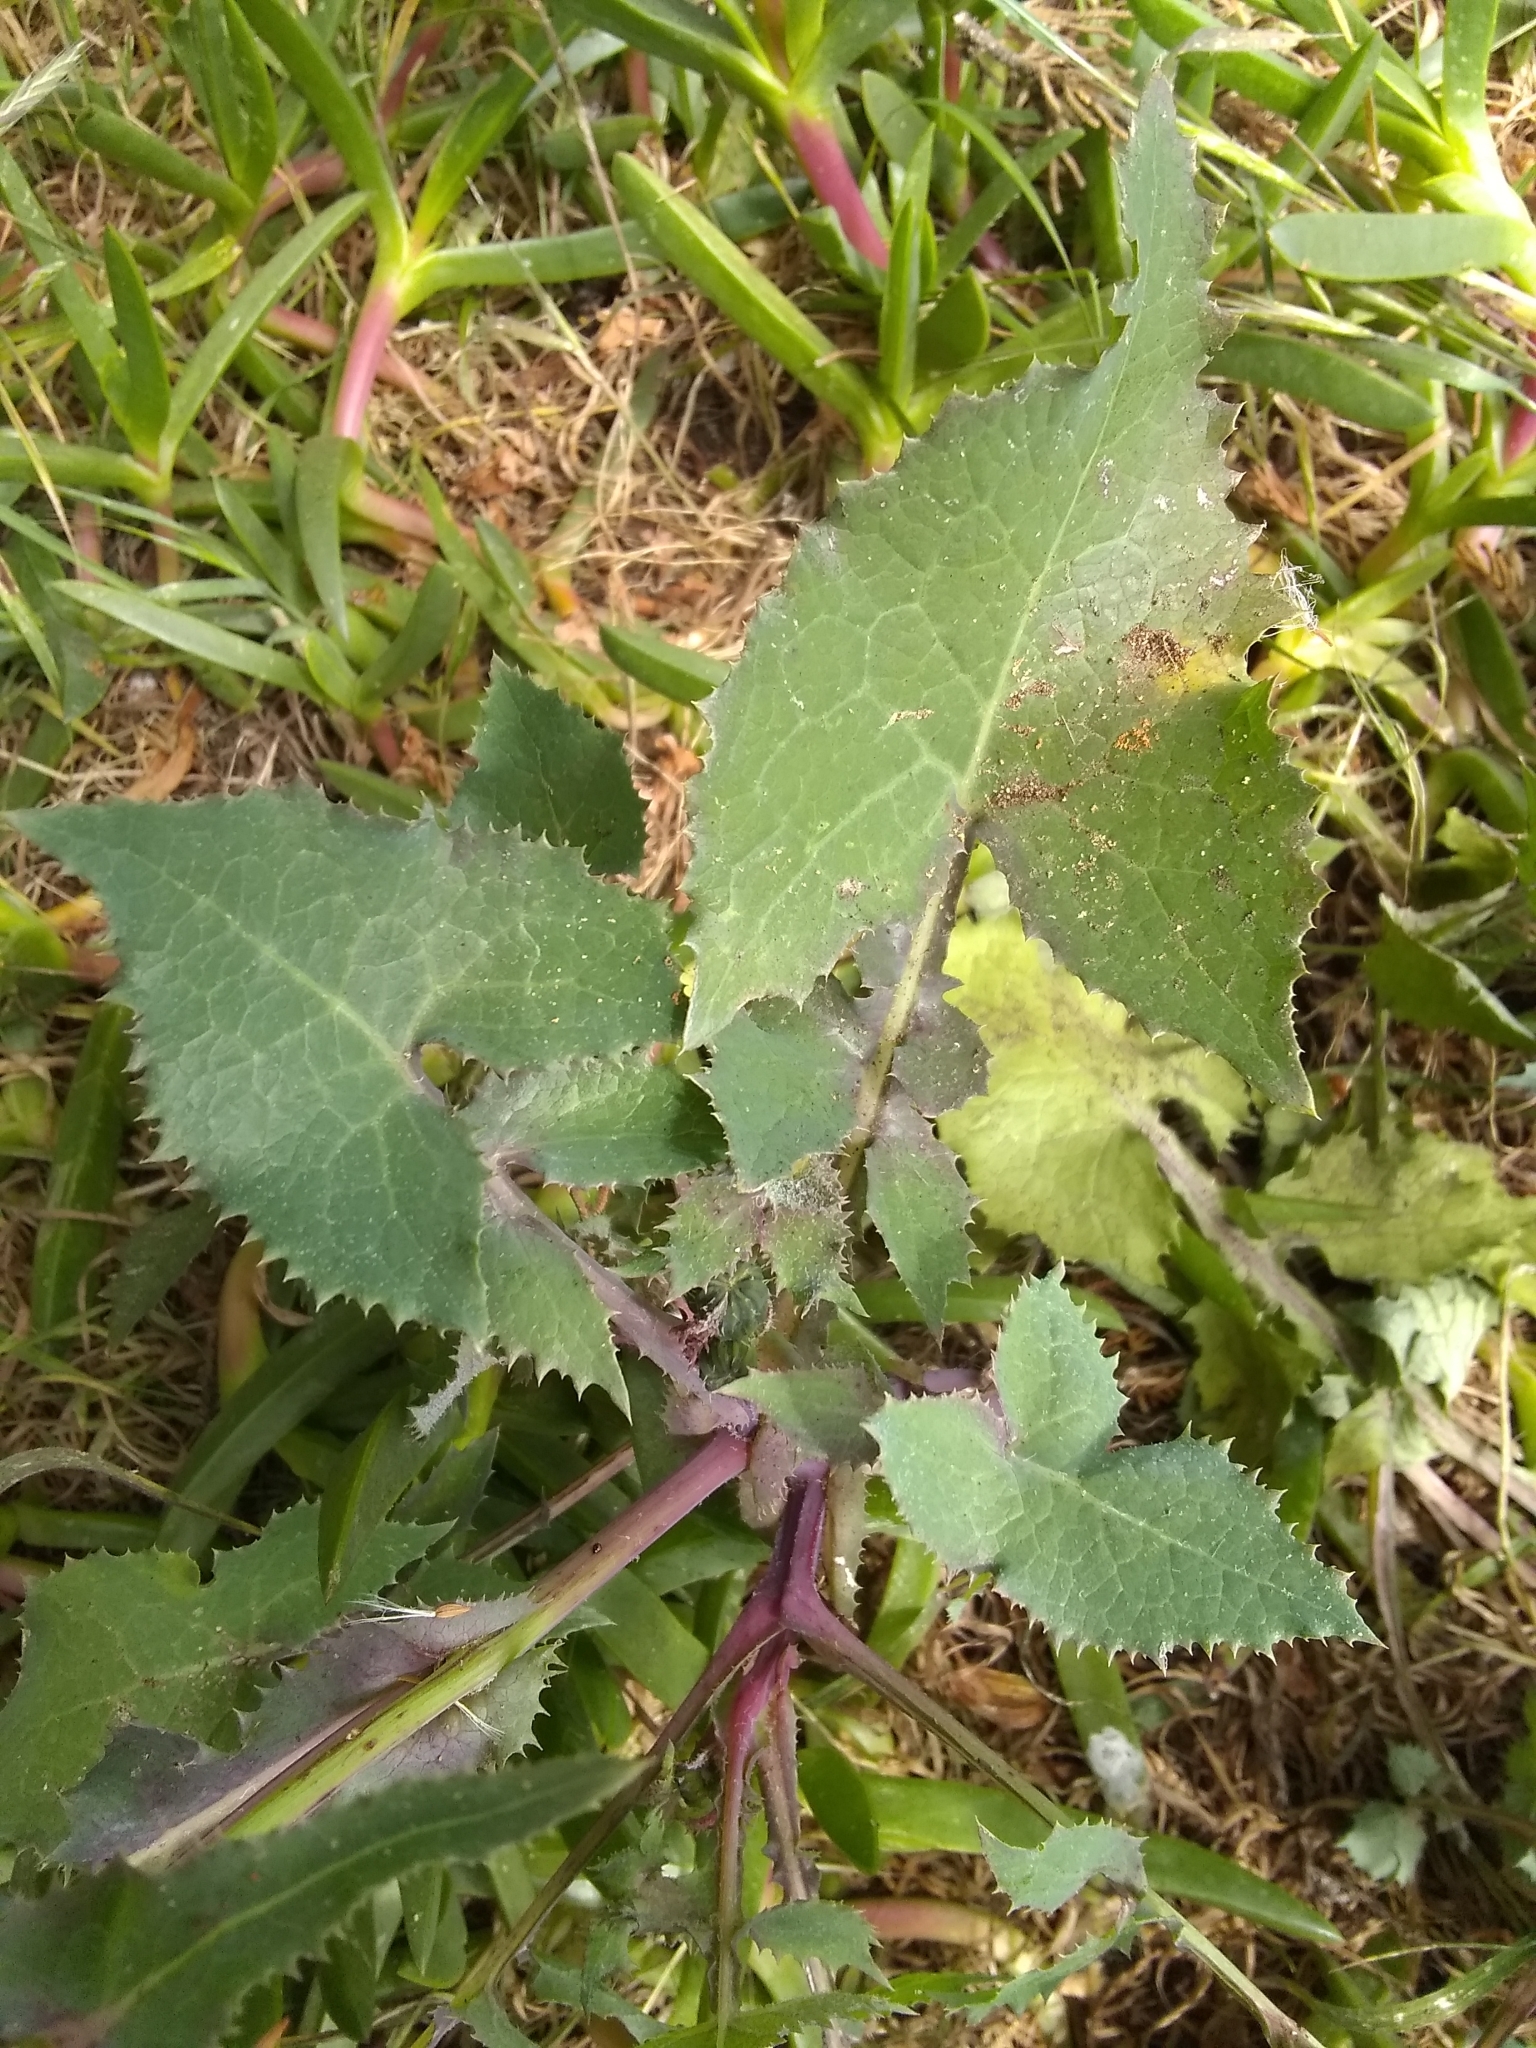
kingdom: Plantae
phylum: Tracheophyta
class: Magnoliopsida
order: Asterales
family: Asteraceae
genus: Sonchus
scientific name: Sonchus oleraceus
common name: Common sowthistle
